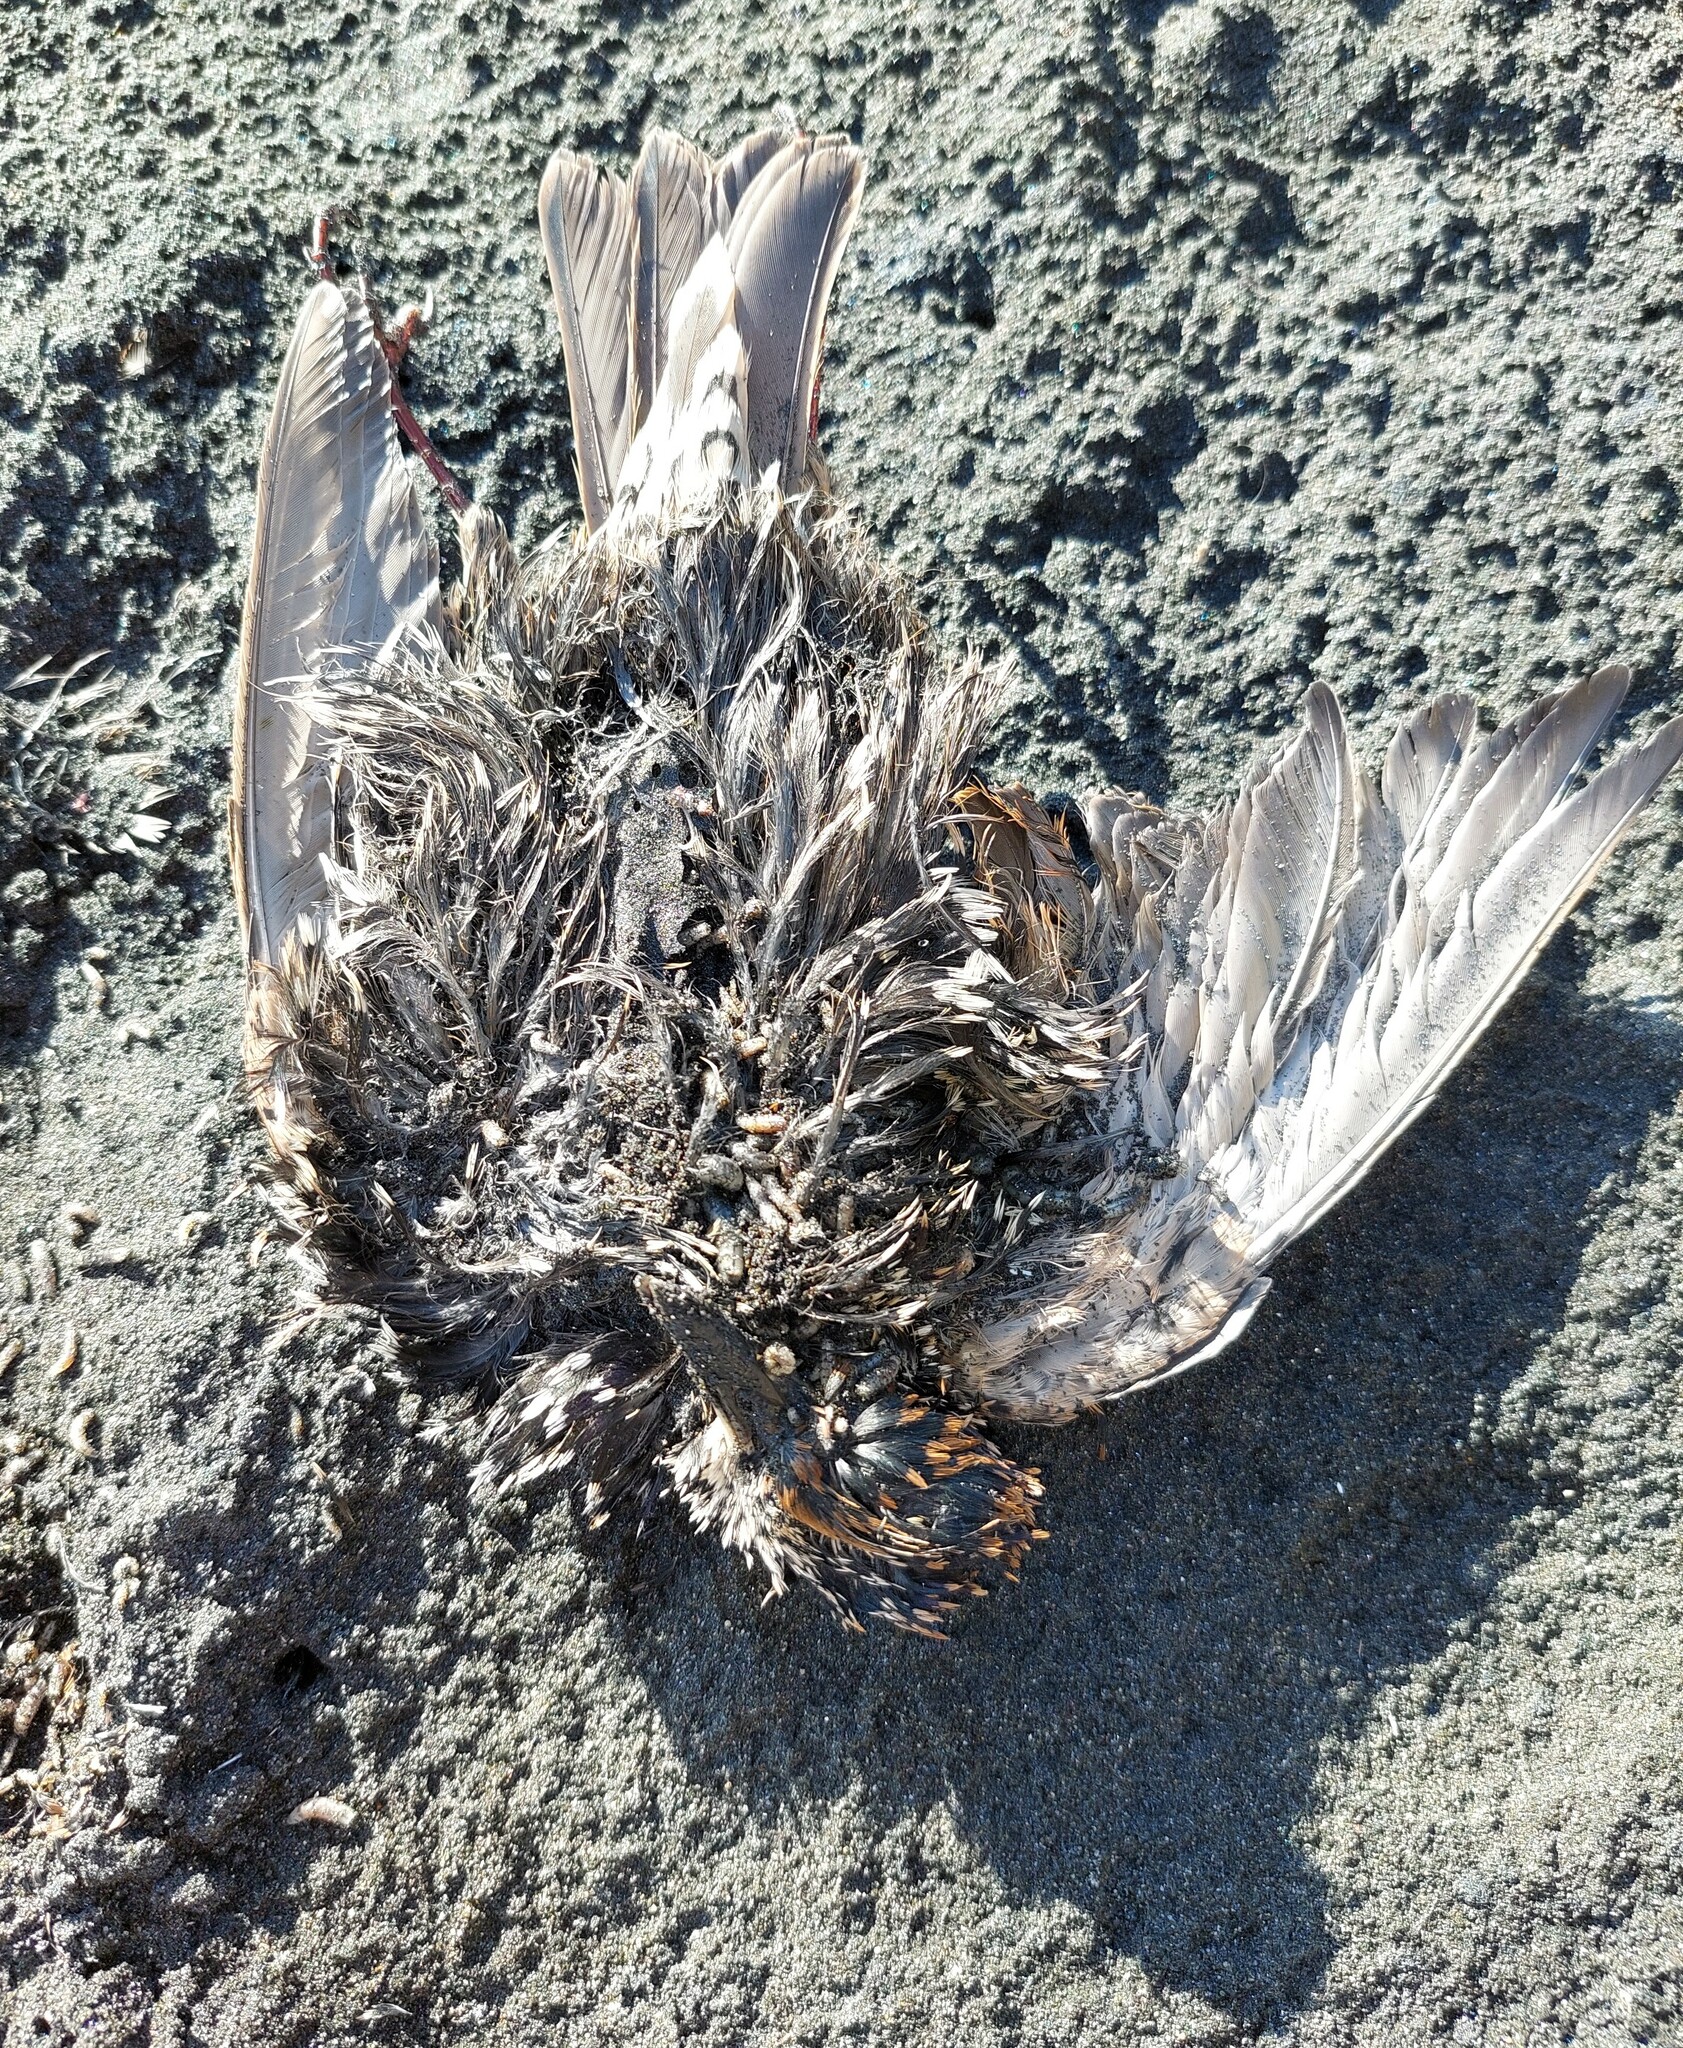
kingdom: Animalia
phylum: Chordata
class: Aves
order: Passeriformes
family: Sturnidae
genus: Sturnus
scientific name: Sturnus vulgaris
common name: Common starling
